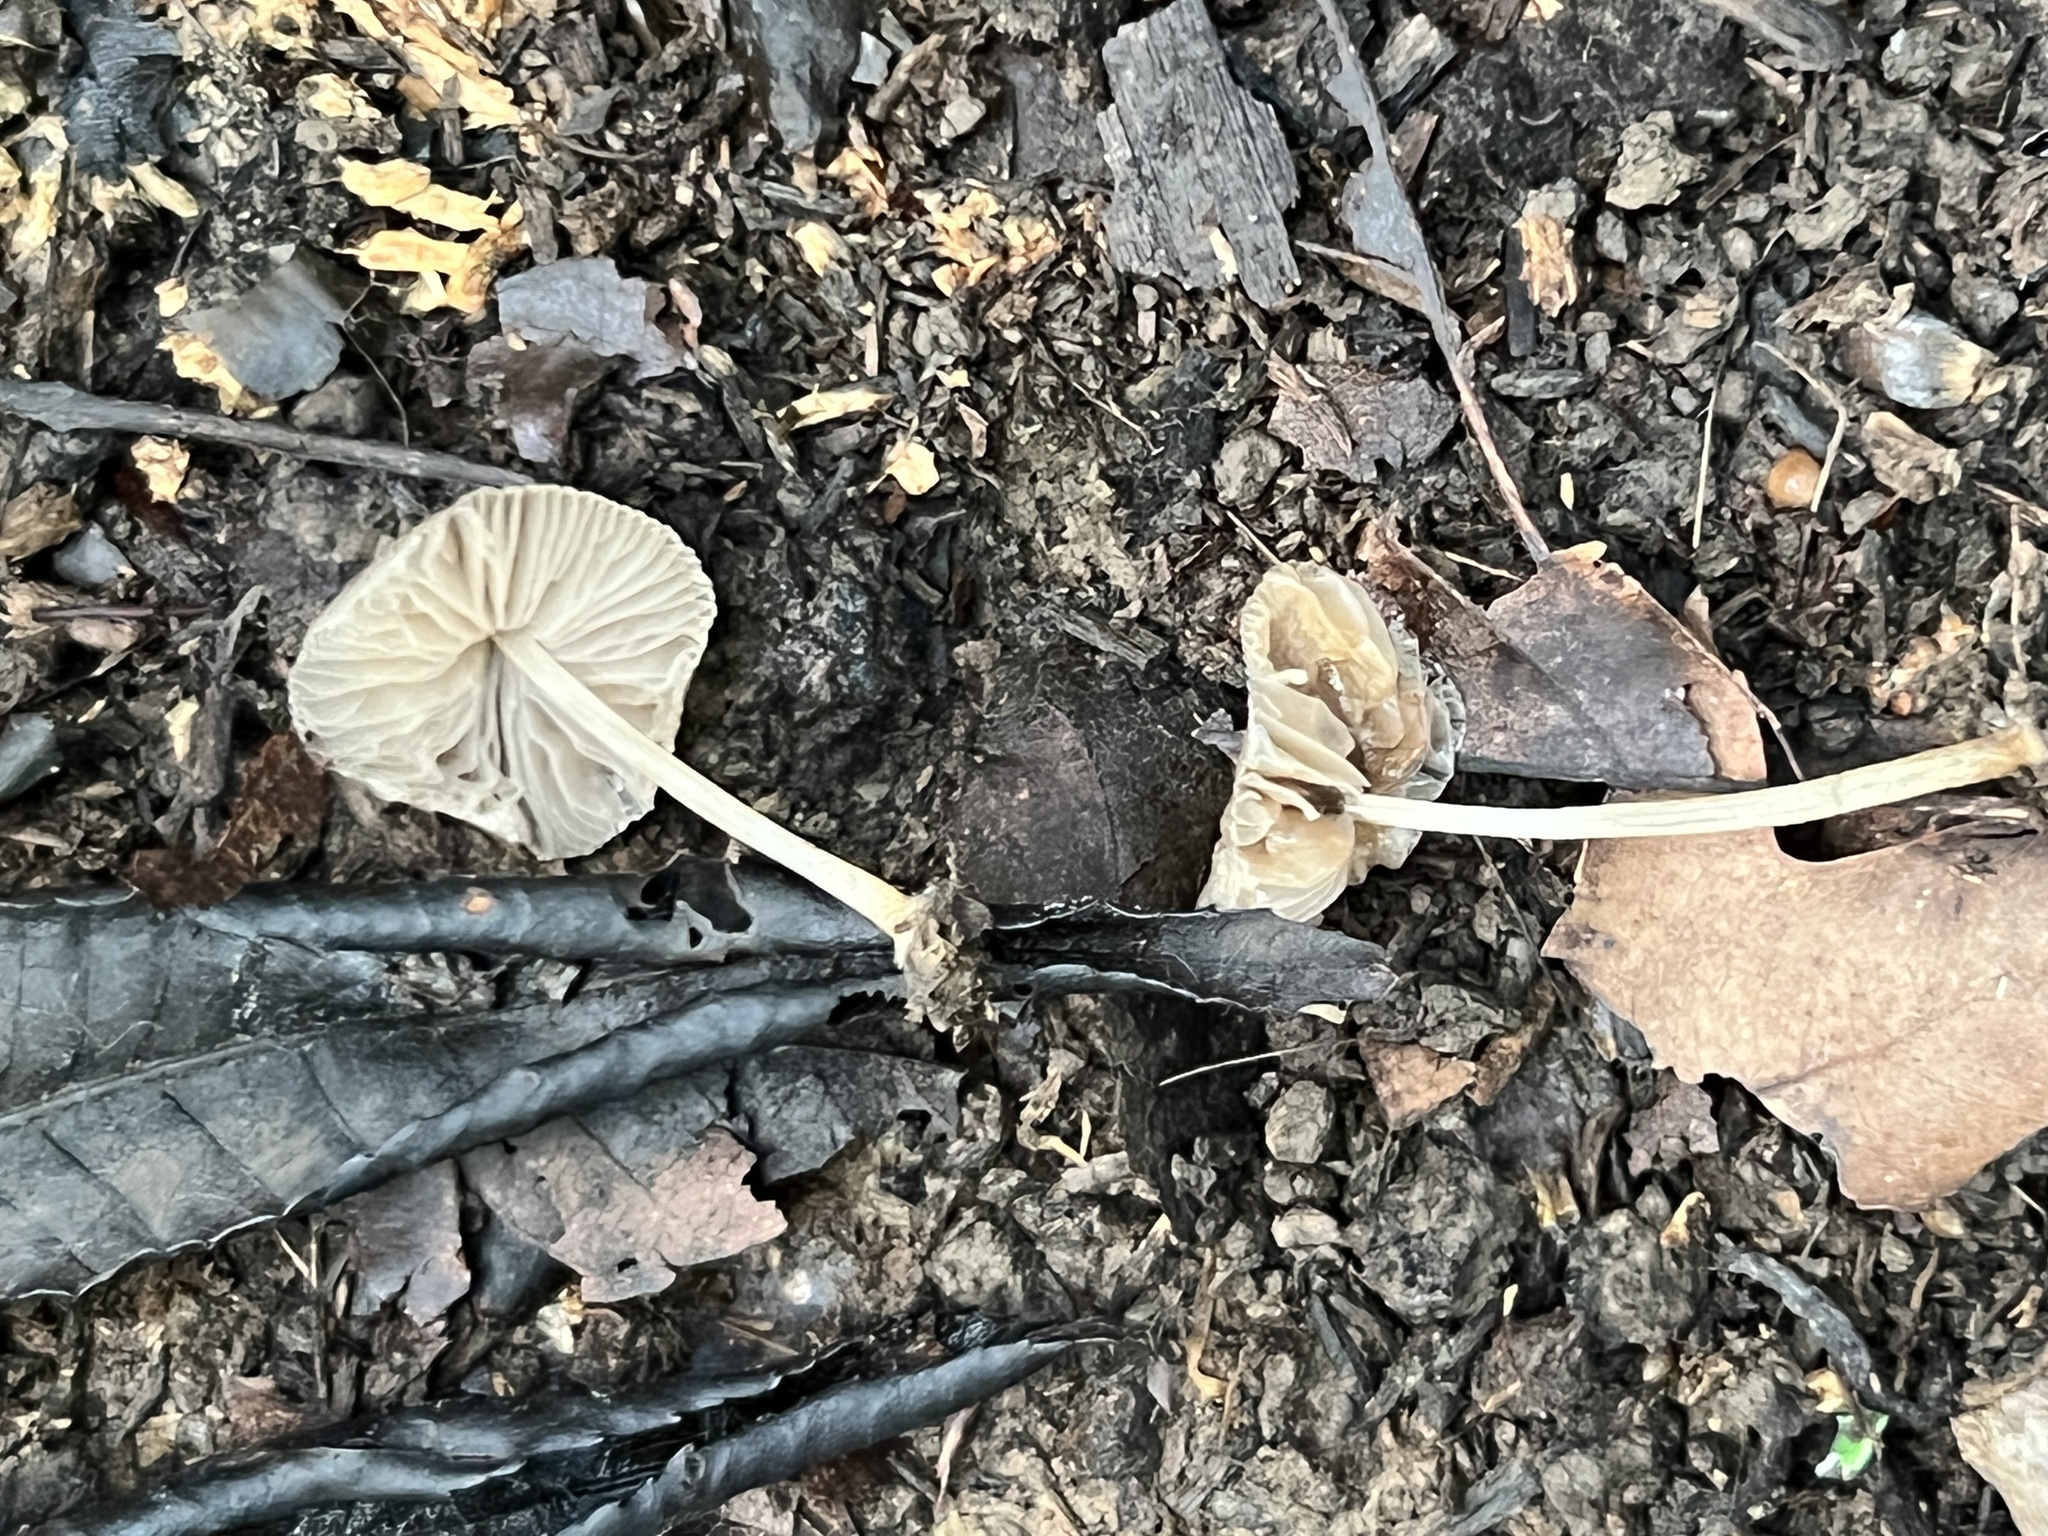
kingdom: Fungi
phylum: Basidiomycota
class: Agaricomycetes
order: Agaricales
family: Pluteaceae
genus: Pluteus
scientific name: Pluteus longistriatus
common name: Pleated pluteus
